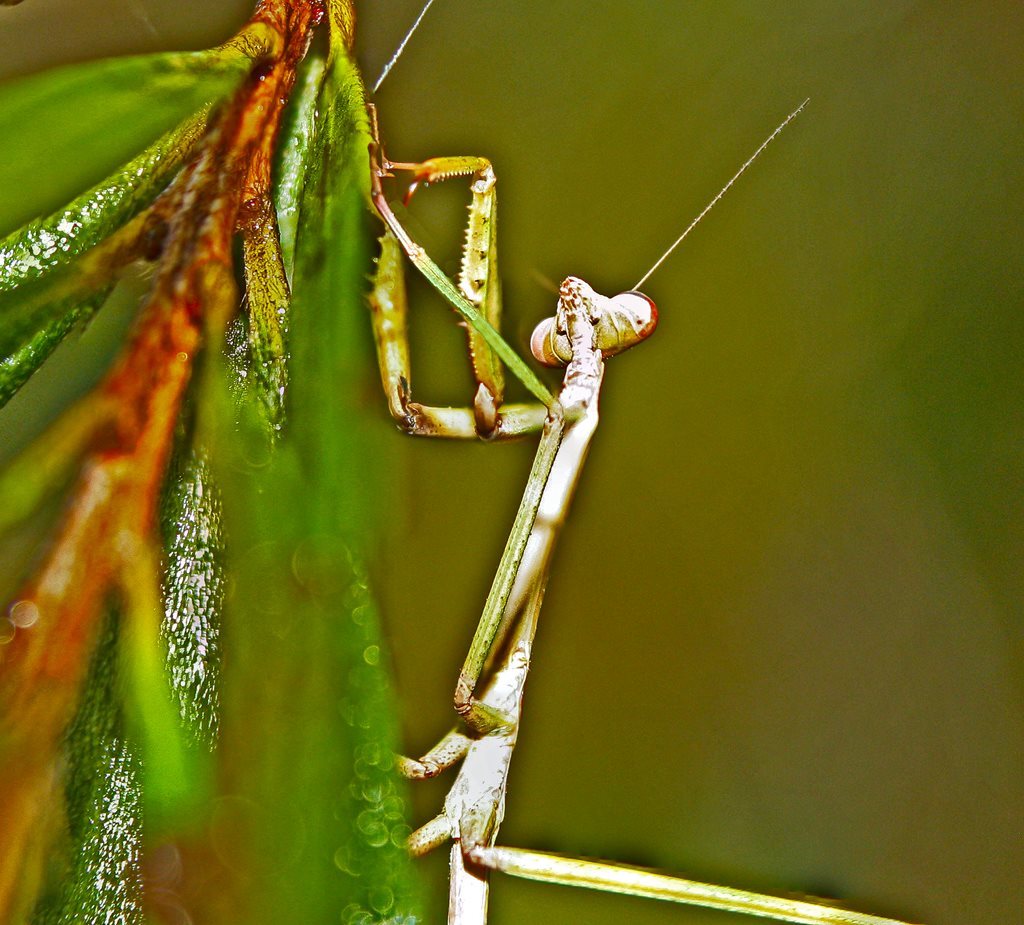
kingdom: Animalia
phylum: Arthropoda
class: Insecta
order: Mantodea
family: Mantidae
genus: Archimantis
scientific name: Archimantis latistyla
